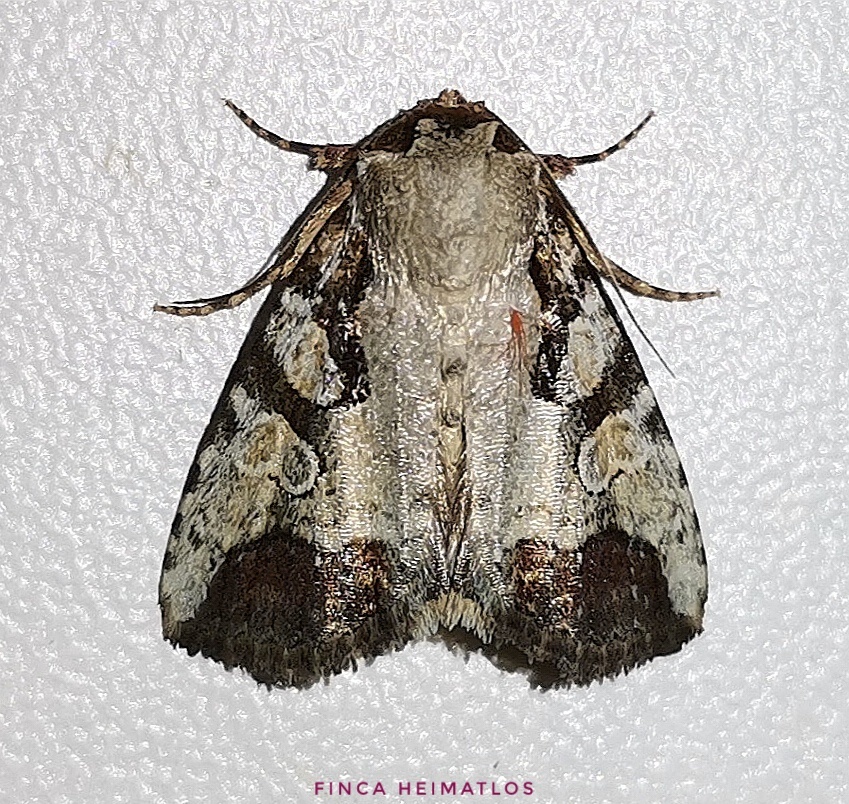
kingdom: Animalia
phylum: Arthropoda
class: Insecta
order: Lepidoptera
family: Noctuidae
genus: Condica
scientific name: Condica micrippia
